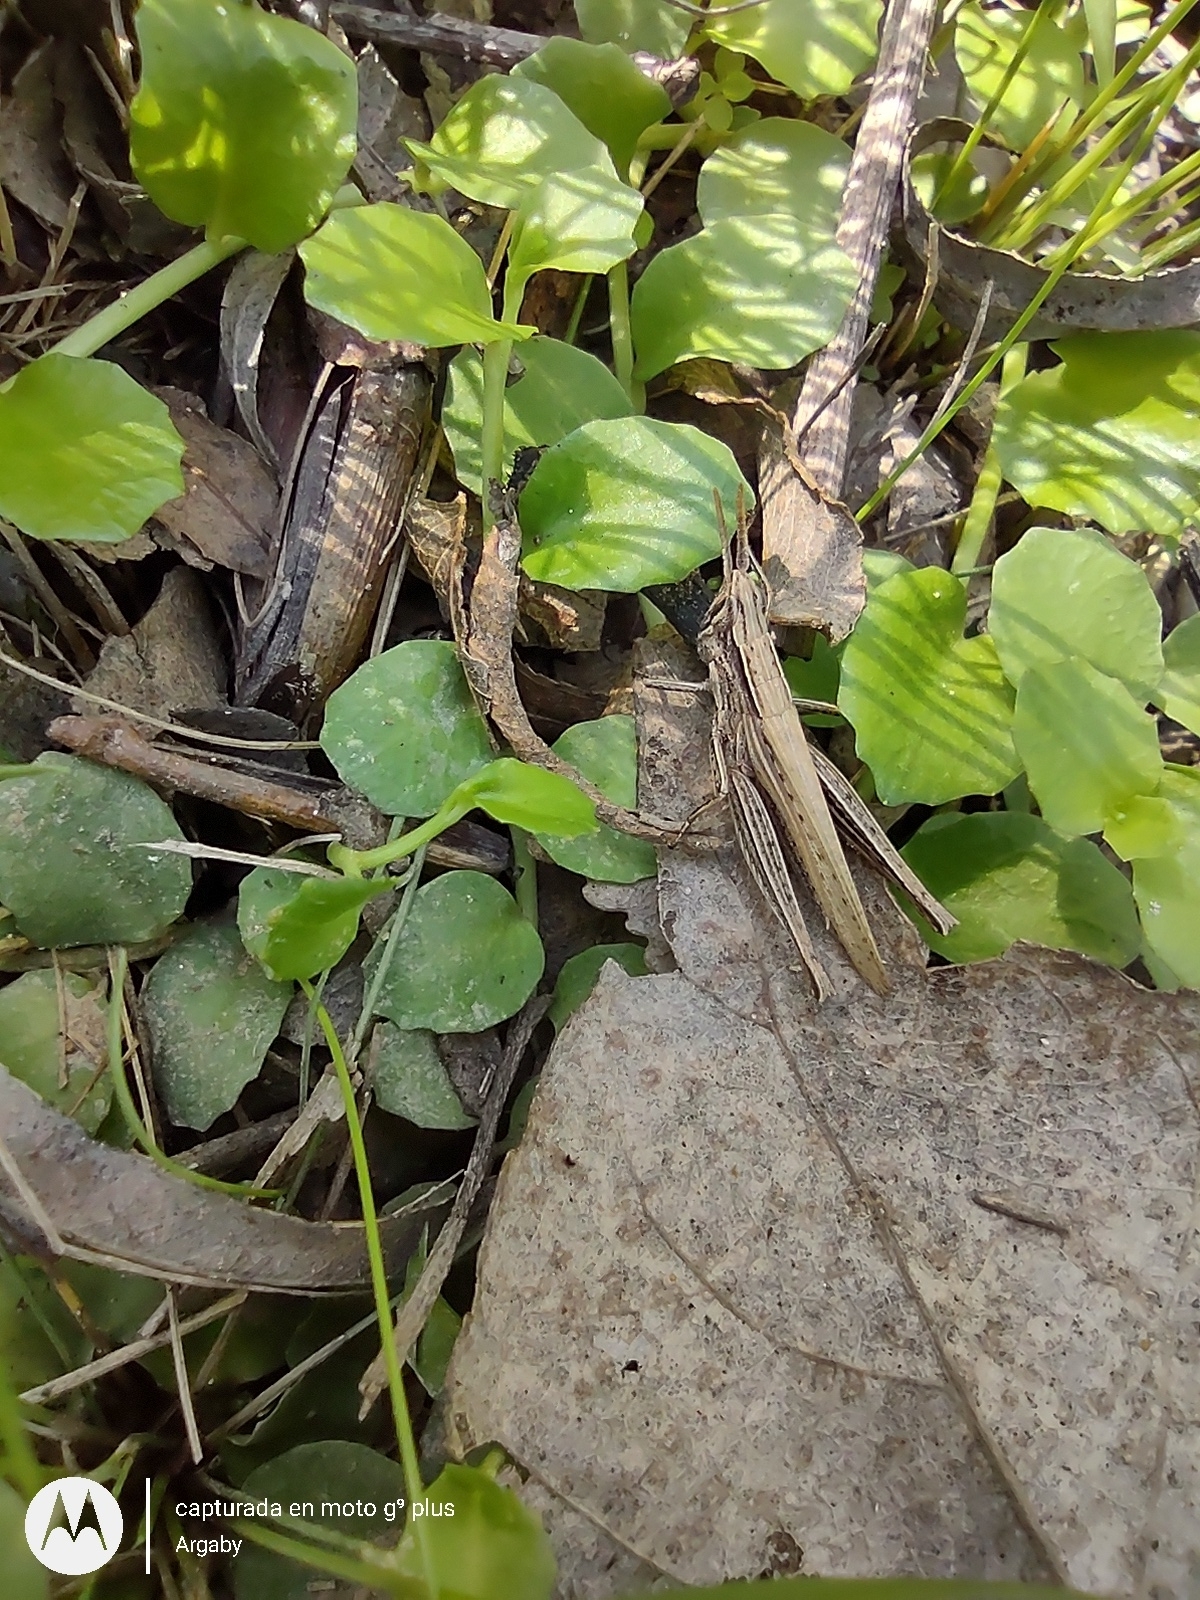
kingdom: Animalia
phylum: Arthropoda
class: Insecta
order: Orthoptera
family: Acrididae
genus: Laplatacris
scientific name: Laplatacris dispar
